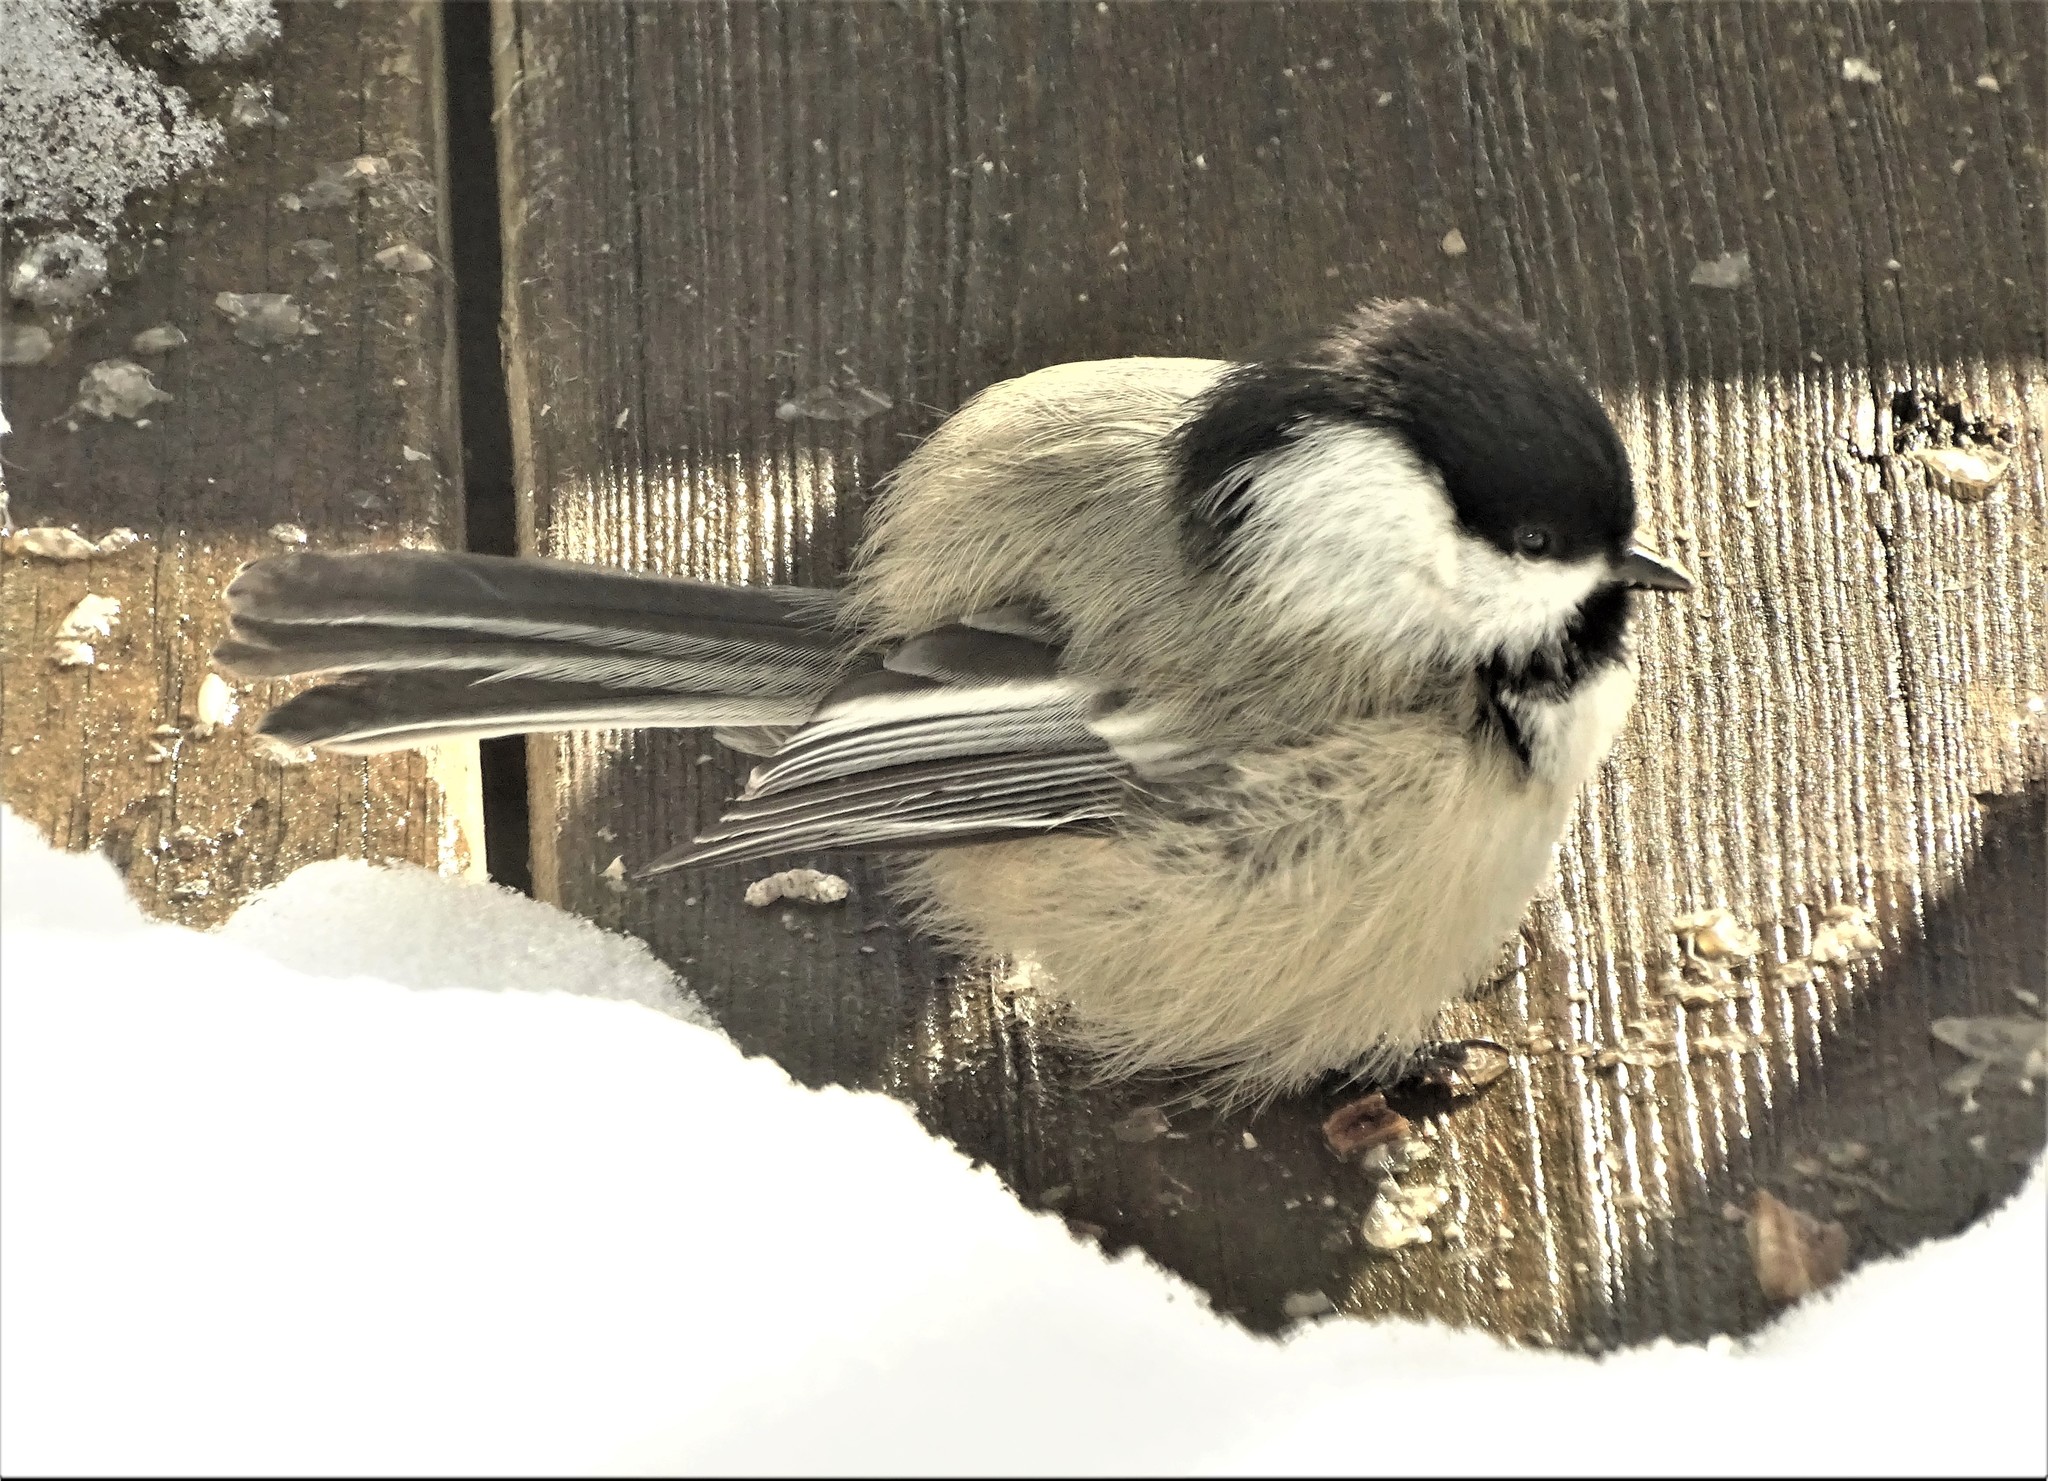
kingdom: Animalia
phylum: Chordata
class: Aves
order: Passeriformes
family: Paridae
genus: Poecile
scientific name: Poecile atricapillus
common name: Black-capped chickadee
